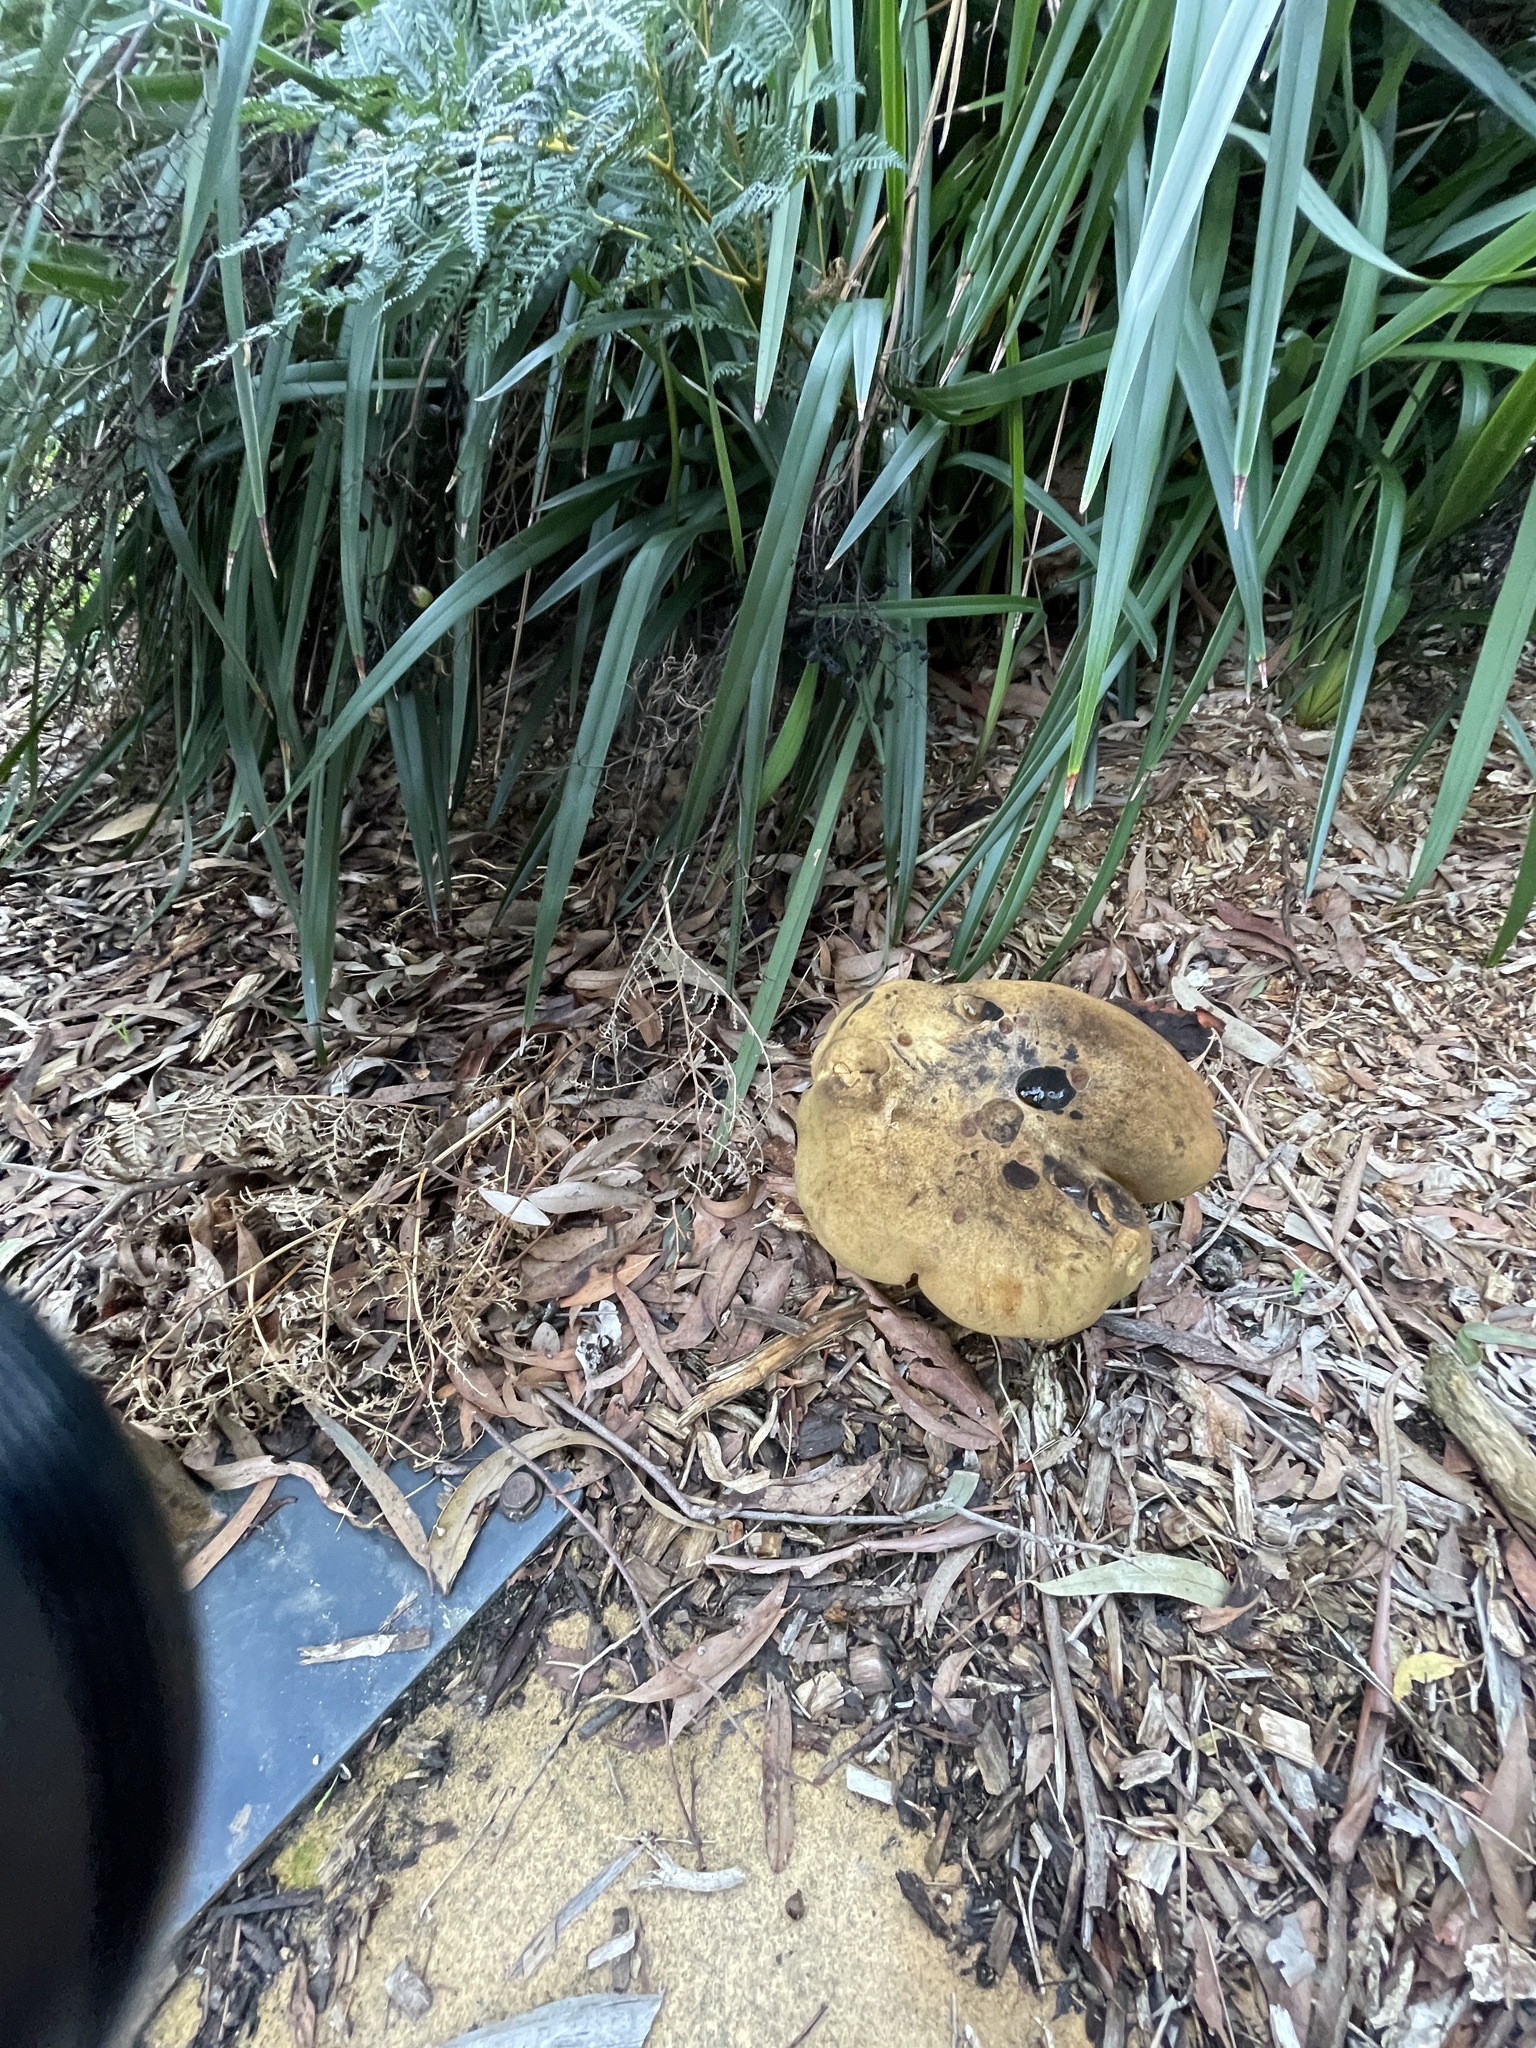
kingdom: Fungi
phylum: Basidiomycota
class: Agaricomycetes
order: Boletales
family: Boletinellaceae
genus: Phlebopus
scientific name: Phlebopus marginatus
